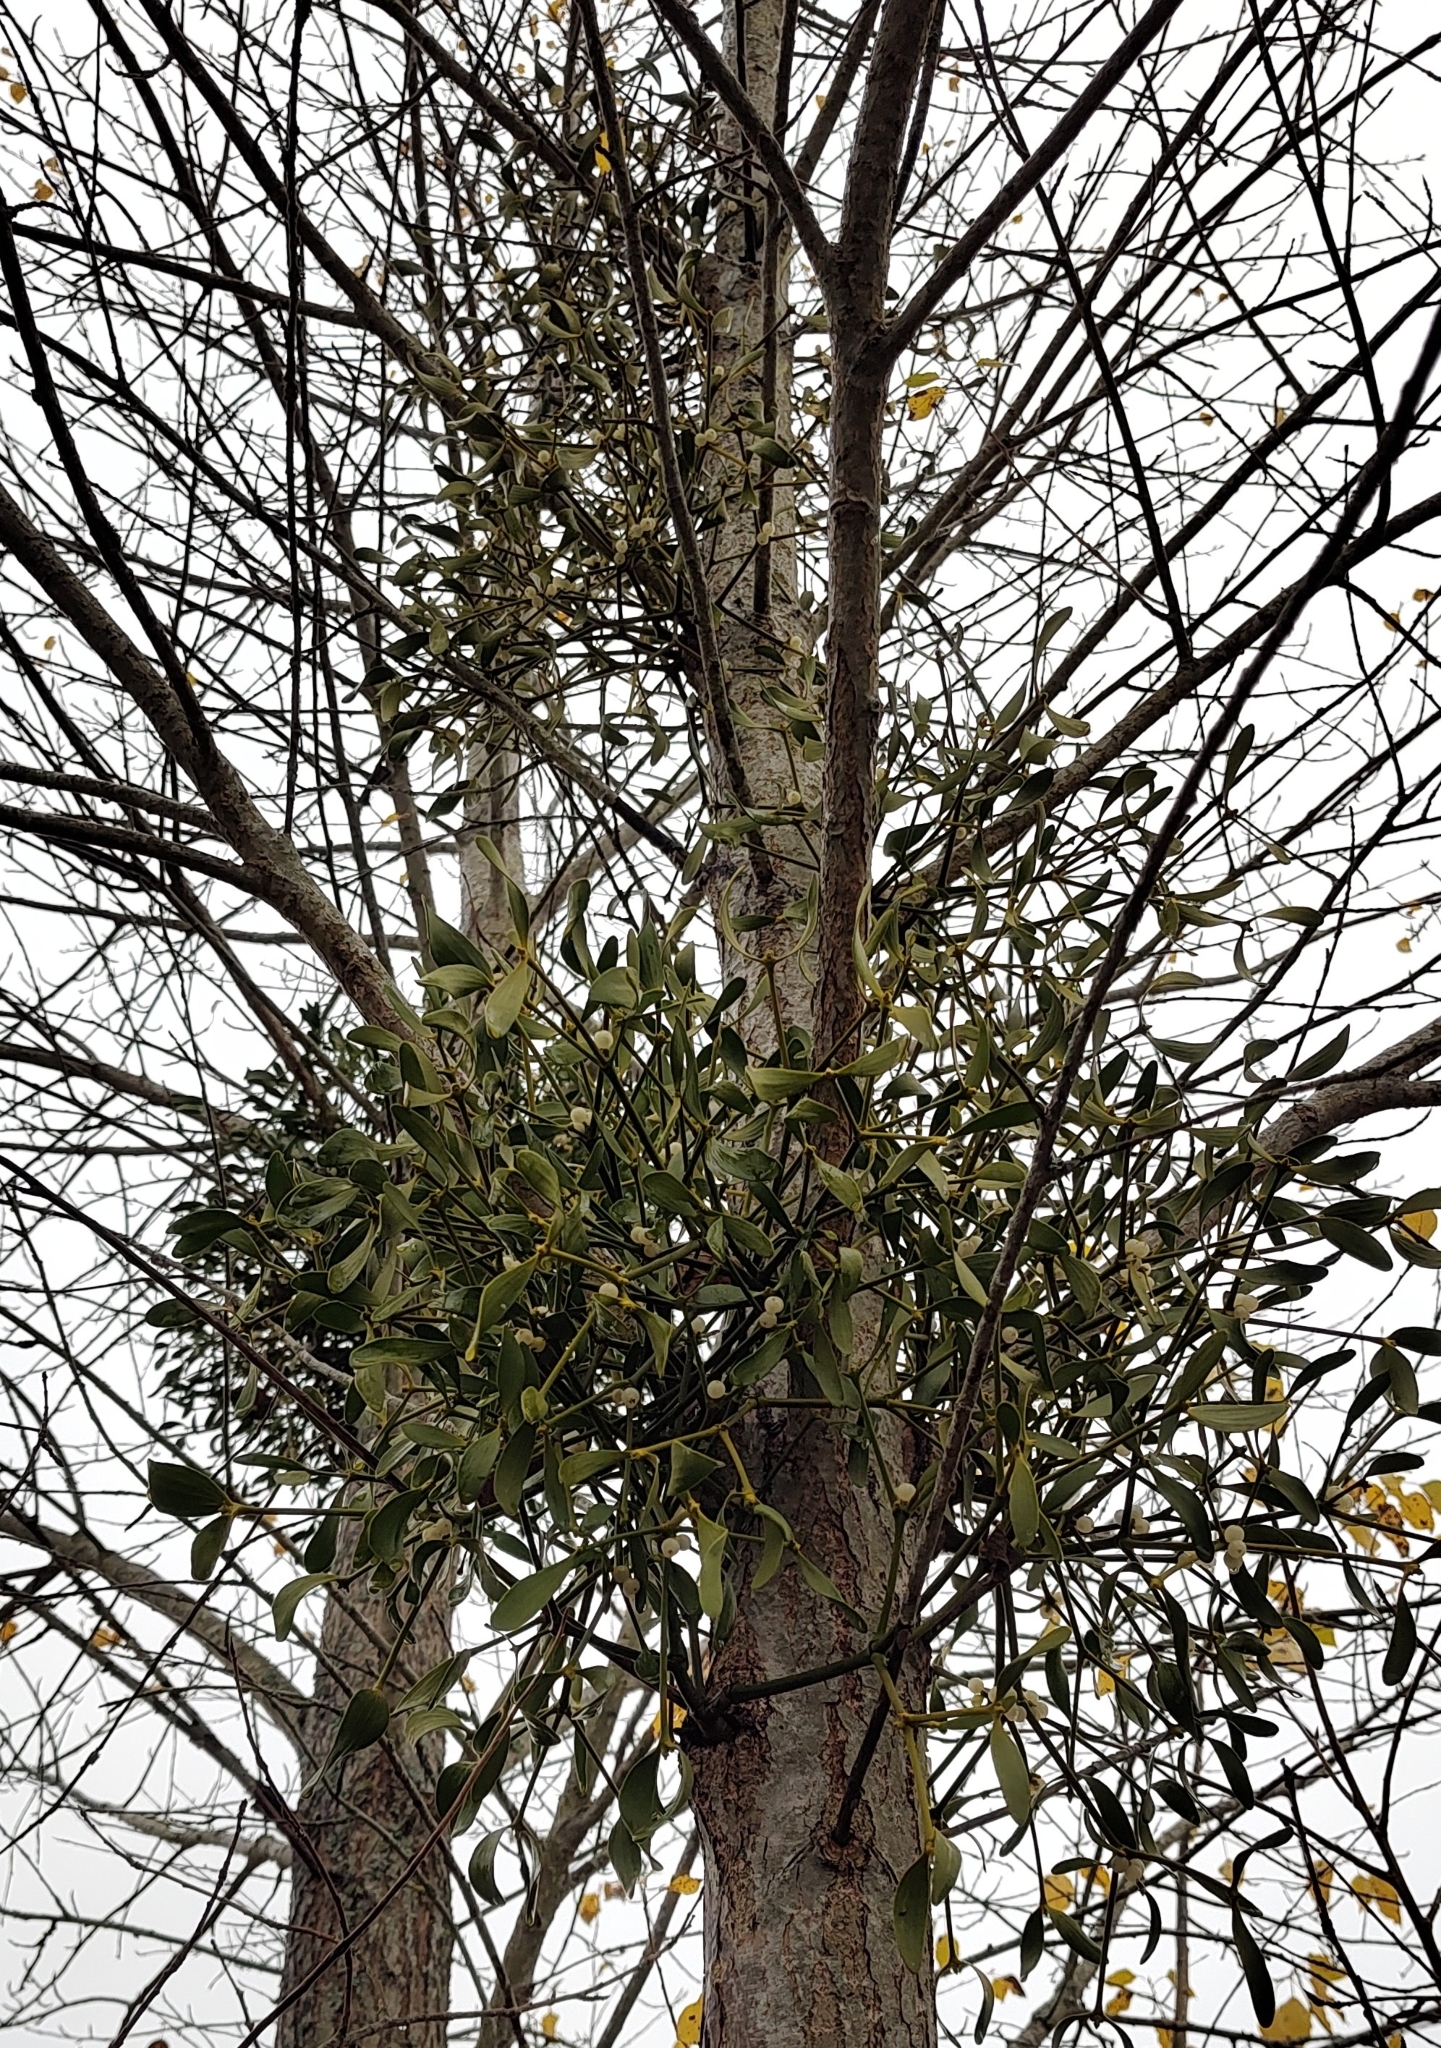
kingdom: Plantae
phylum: Tracheophyta
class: Magnoliopsida
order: Santalales
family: Viscaceae
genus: Viscum
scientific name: Viscum album
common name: Mistletoe
